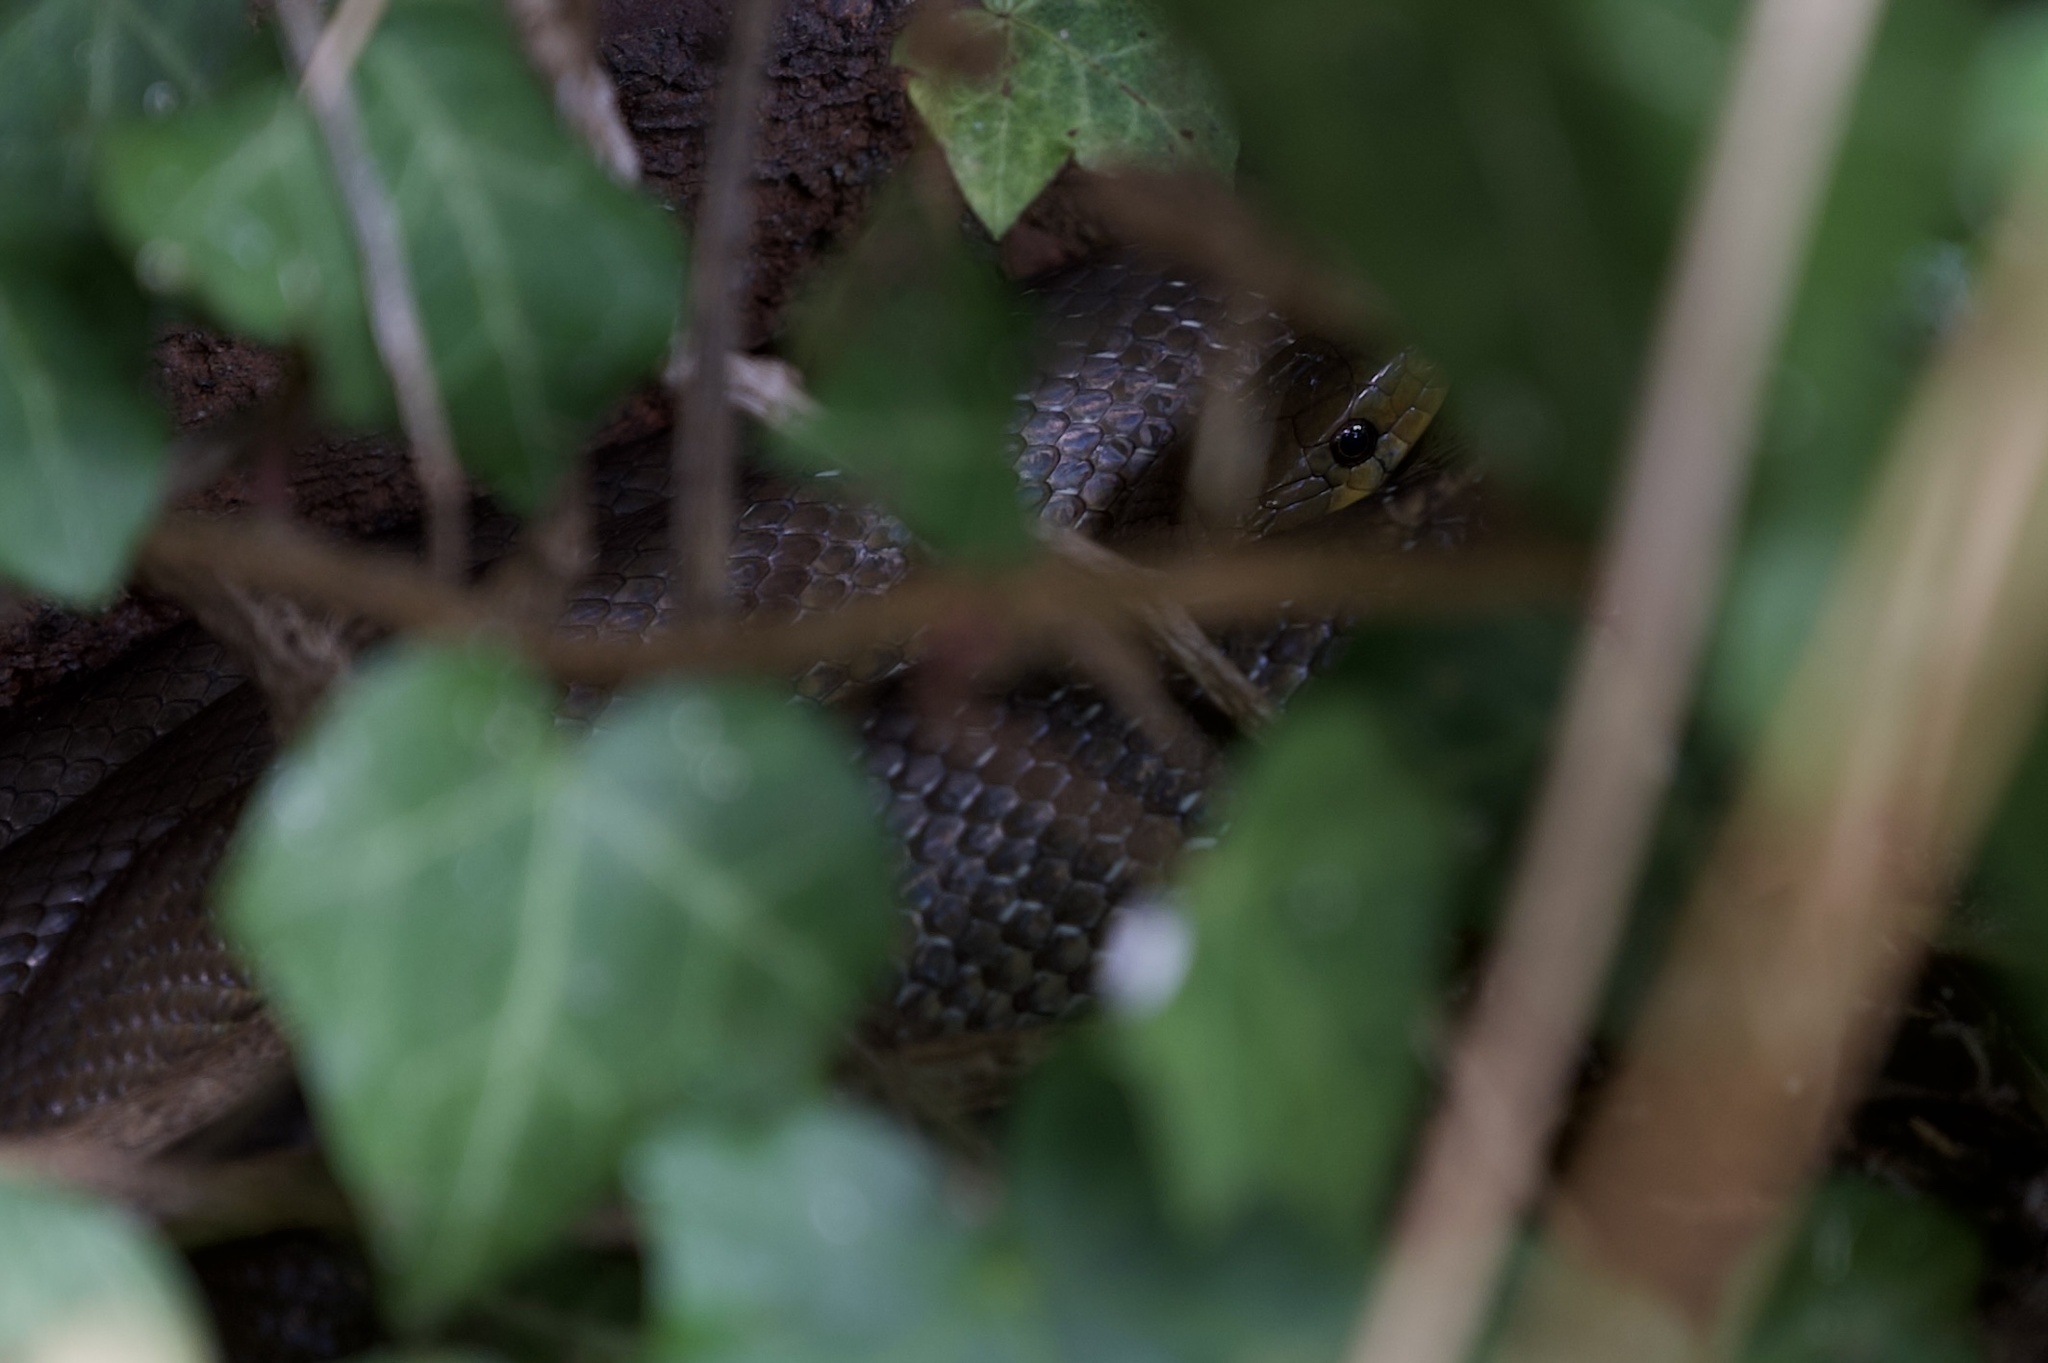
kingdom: Animalia
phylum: Chordata
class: Squamata
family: Colubridae
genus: Zamenis
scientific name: Zamenis longissimus
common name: Aesculapean snake
